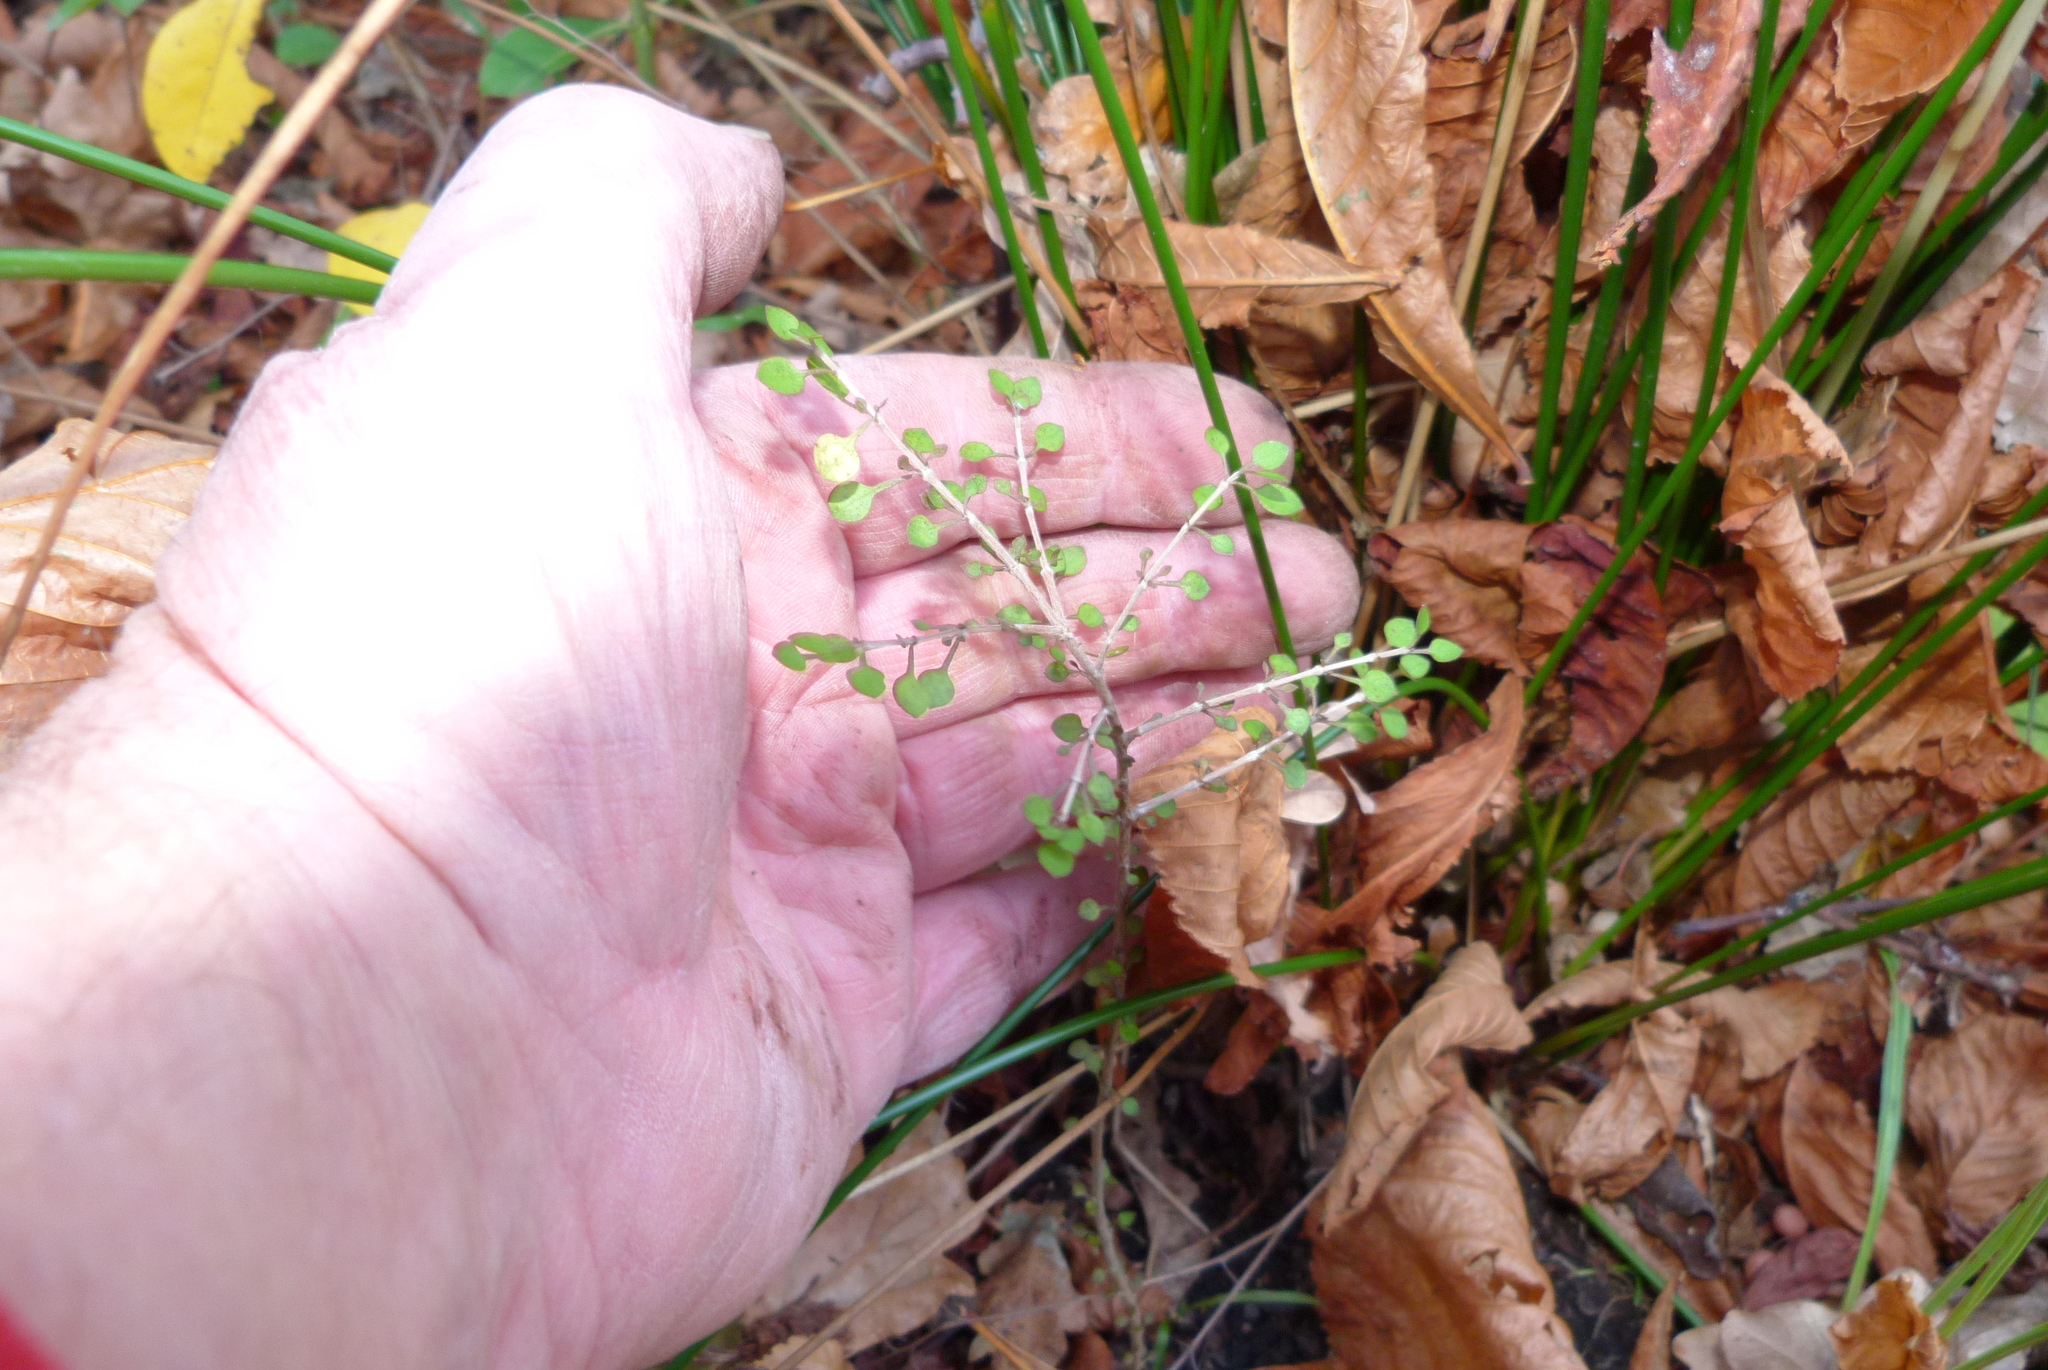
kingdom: Plantae
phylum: Tracheophyta
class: Magnoliopsida
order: Gentianales
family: Rubiaceae
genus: Coprosma
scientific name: Coprosma virescens
